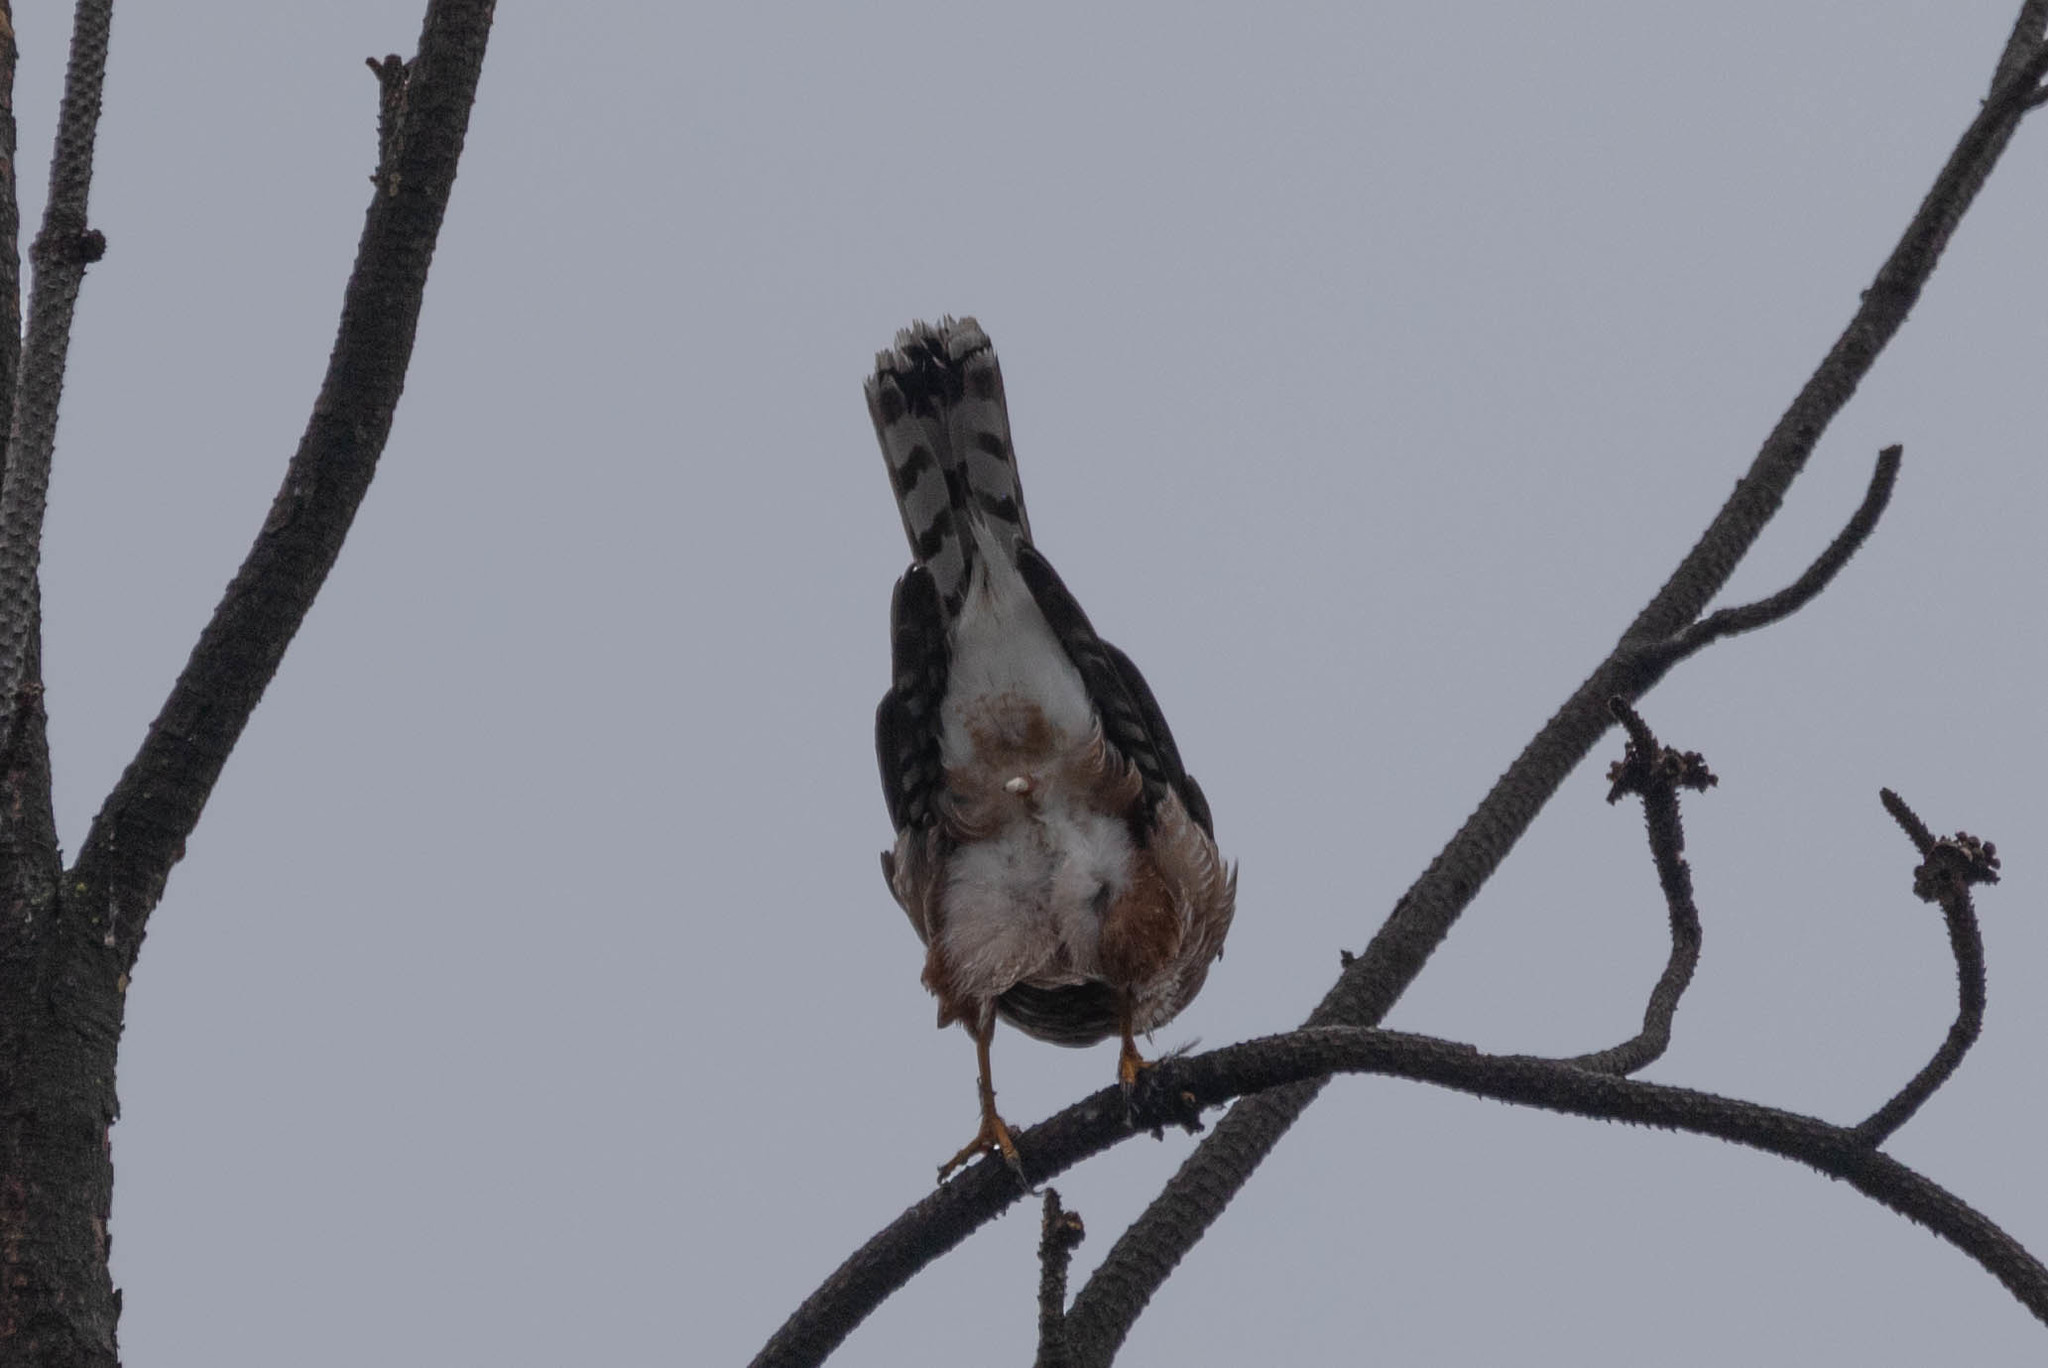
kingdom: Animalia
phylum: Chordata
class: Aves
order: Accipitriformes
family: Accipitridae
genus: Accipiter
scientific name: Accipiter cooperii
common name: Cooper's hawk
